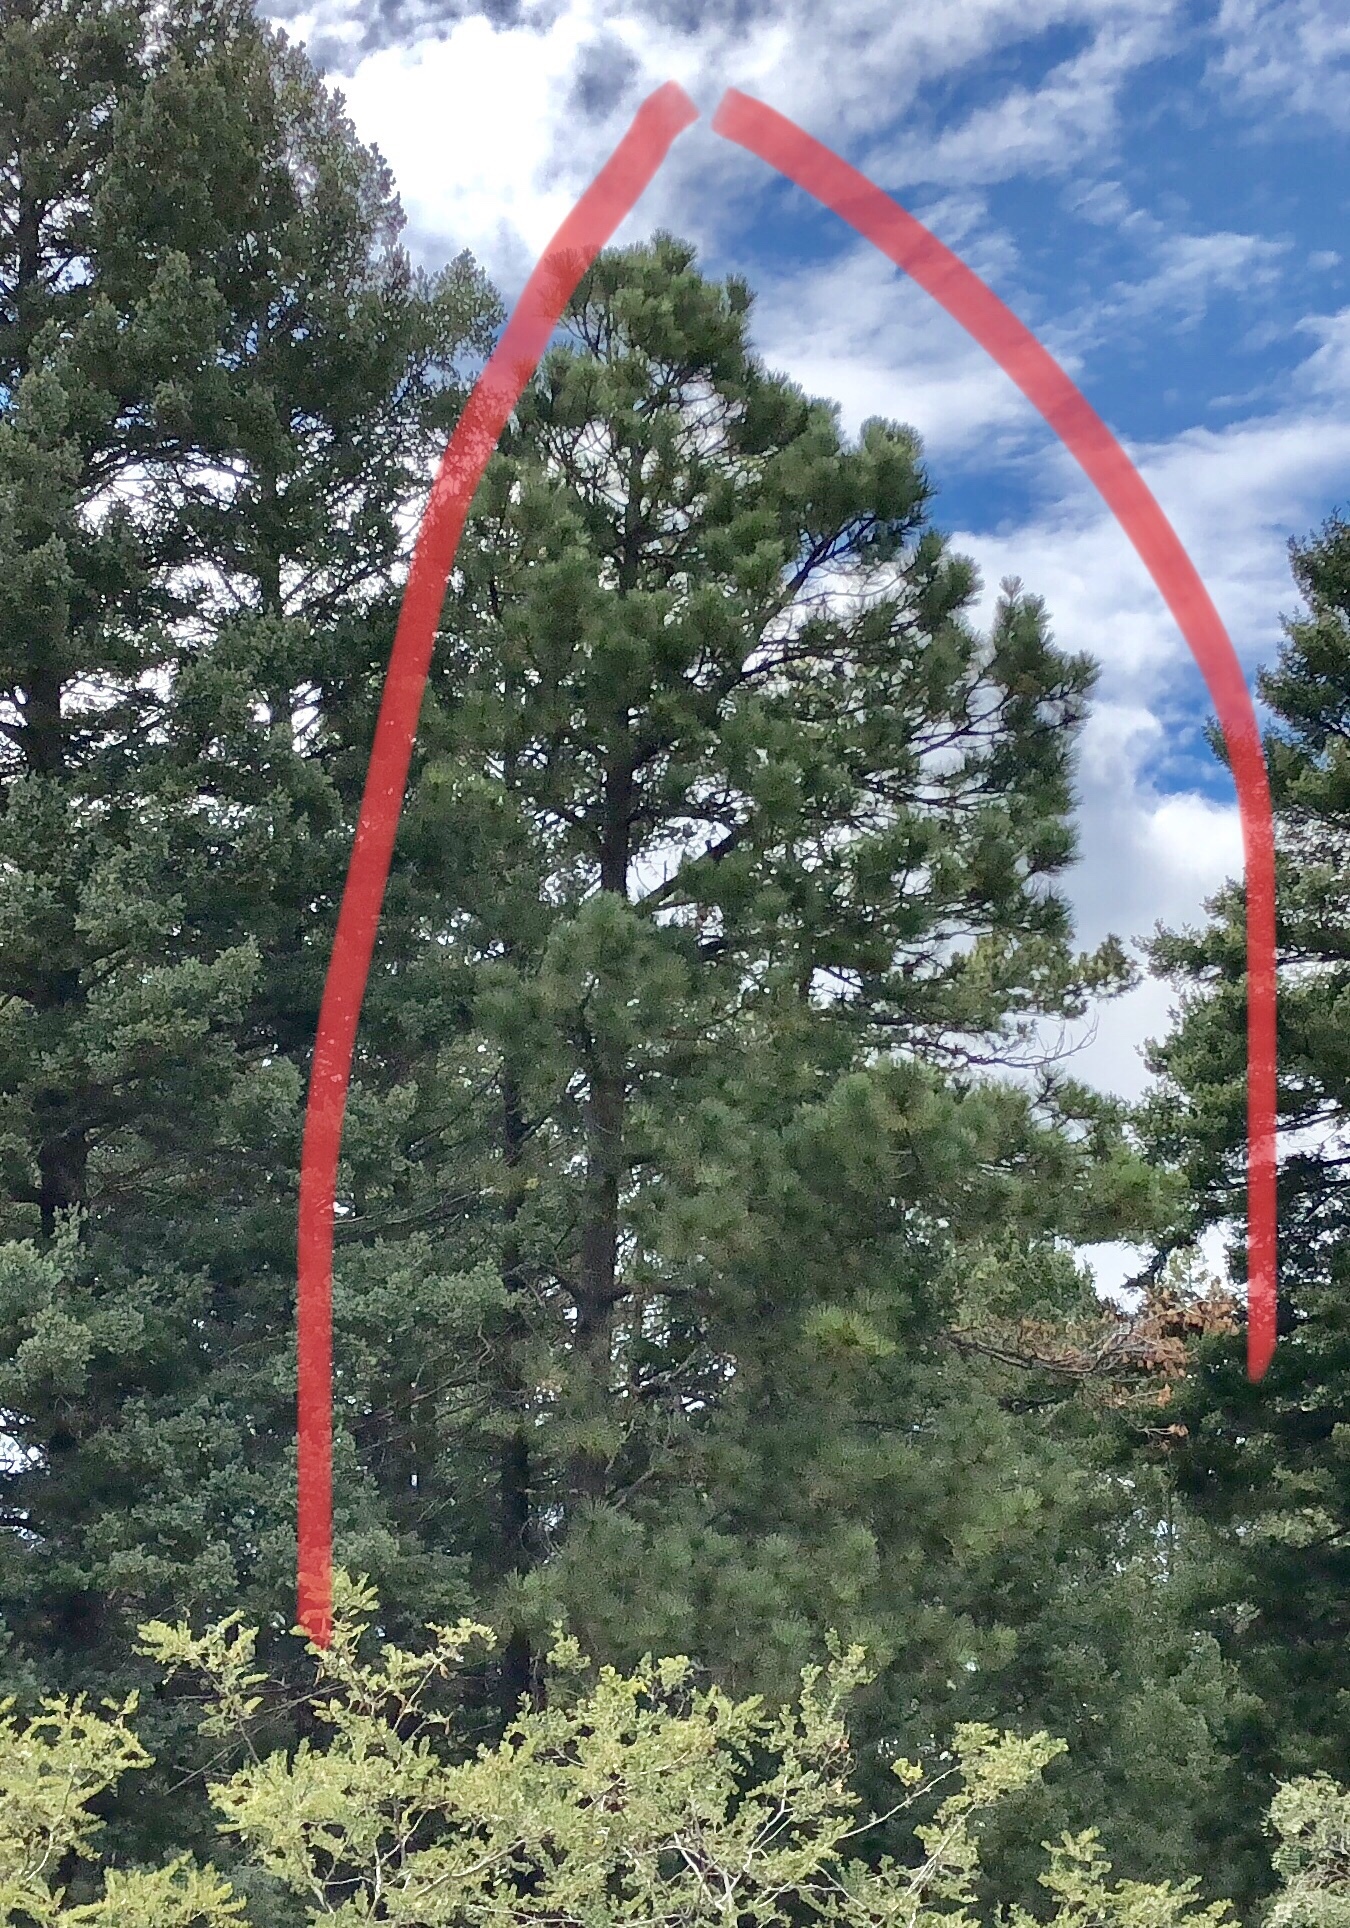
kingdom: Plantae
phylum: Tracheophyta
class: Pinopsida
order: Pinales
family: Pinaceae
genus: Pinus
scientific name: Pinus ponderosa
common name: Western yellow-pine
